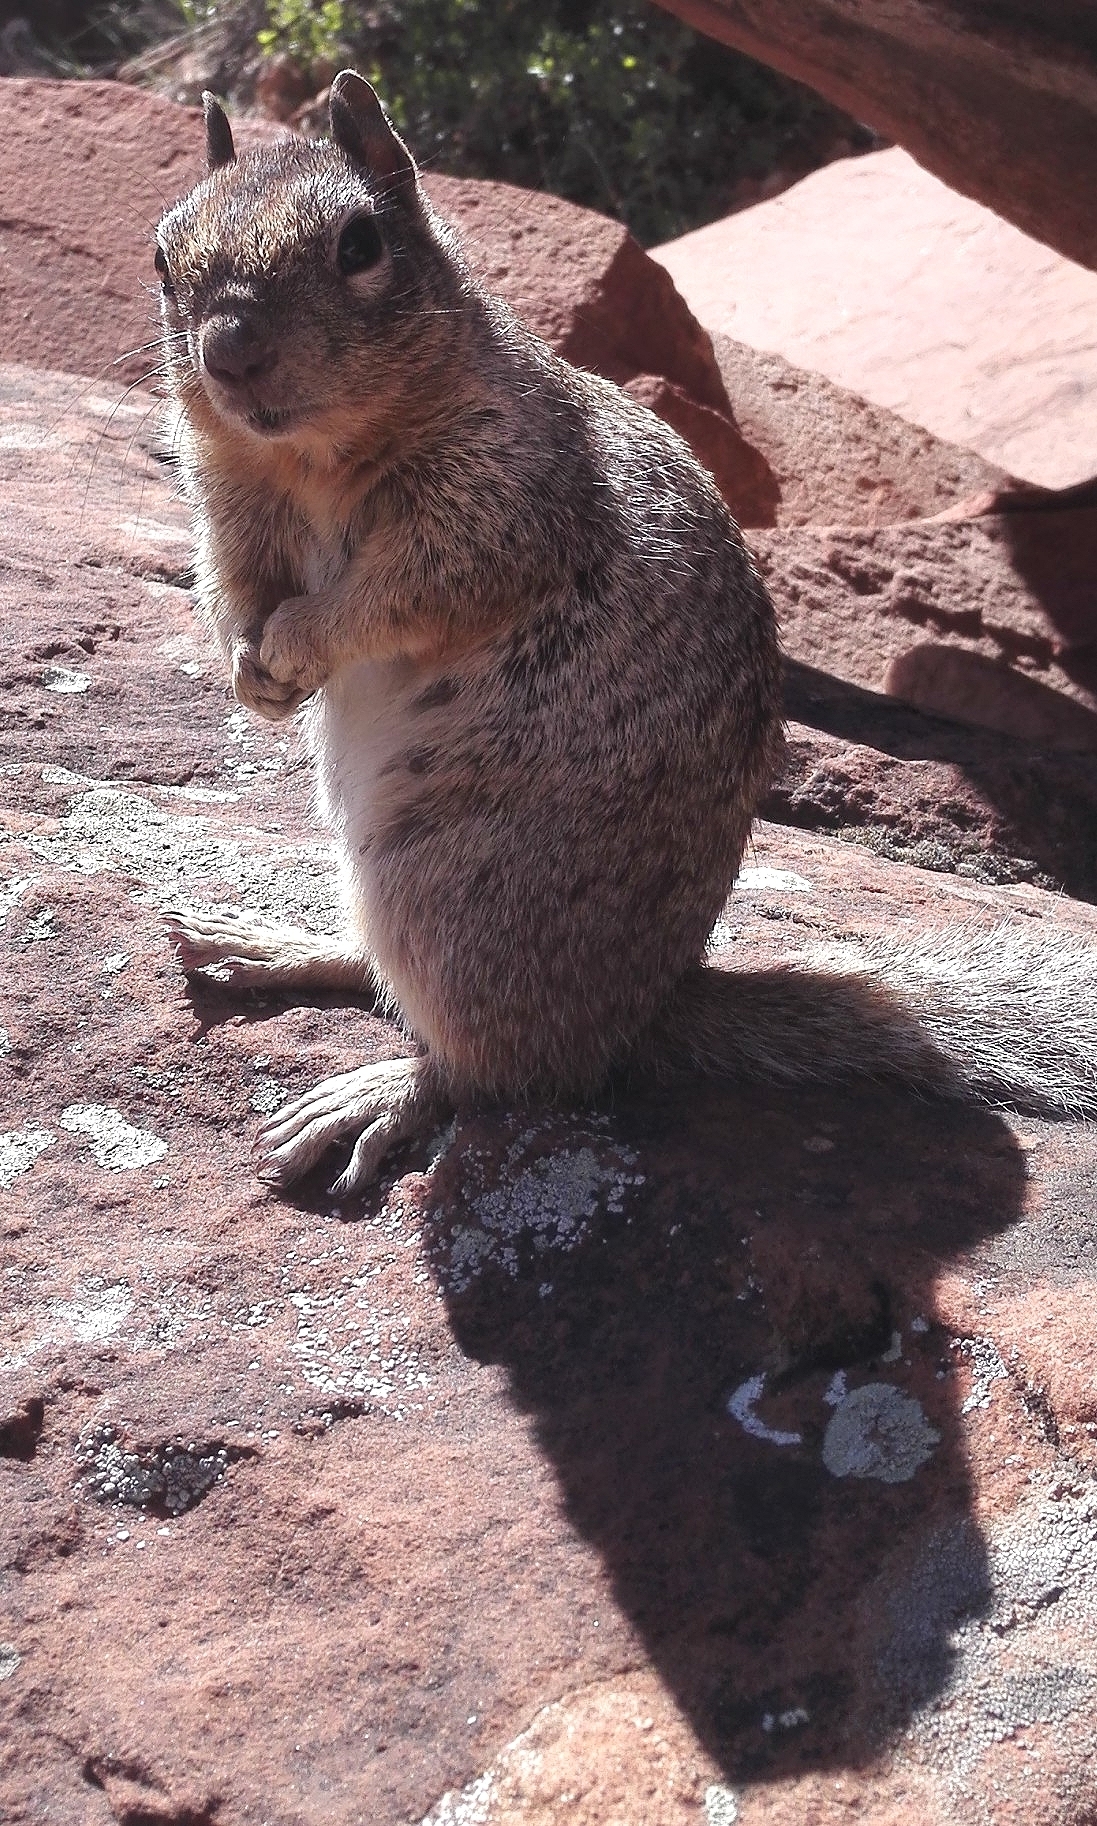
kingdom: Animalia
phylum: Chordata
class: Mammalia
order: Rodentia
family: Sciuridae
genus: Otospermophilus
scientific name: Otospermophilus variegatus
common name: Rock squirrel
